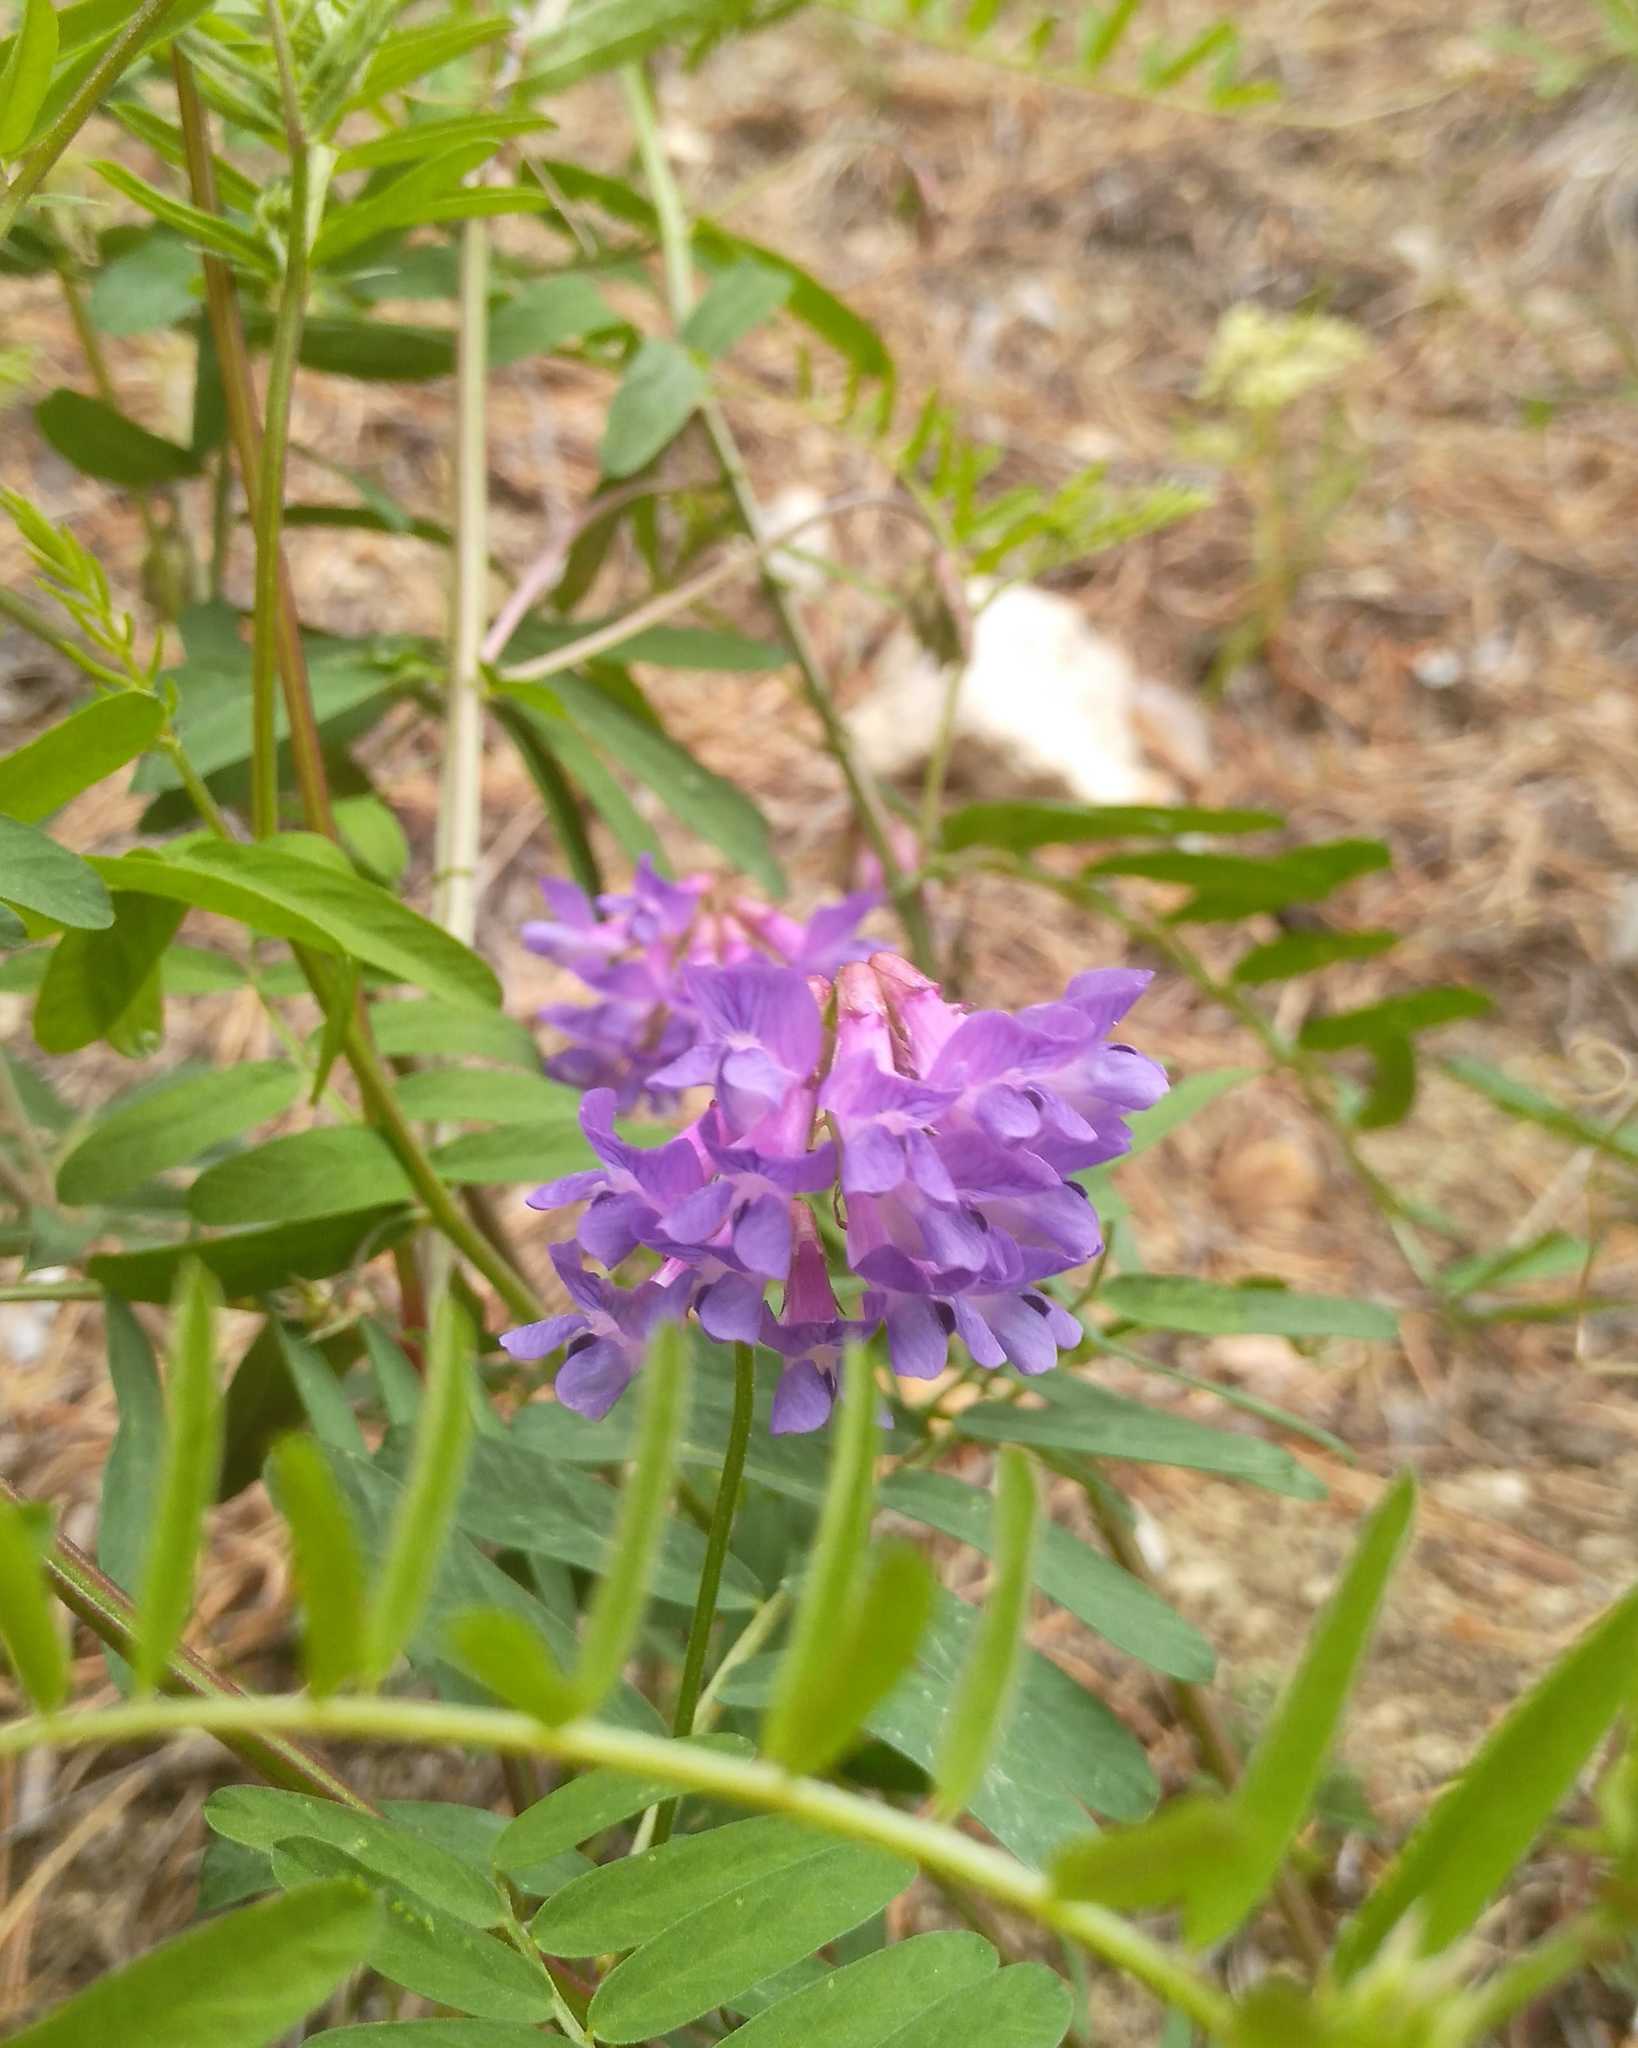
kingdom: Plantae
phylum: Tracheophyta
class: Magnoliopsida
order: Fabales
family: Fabaceae
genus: Vicia
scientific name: Vicia multicaulis
